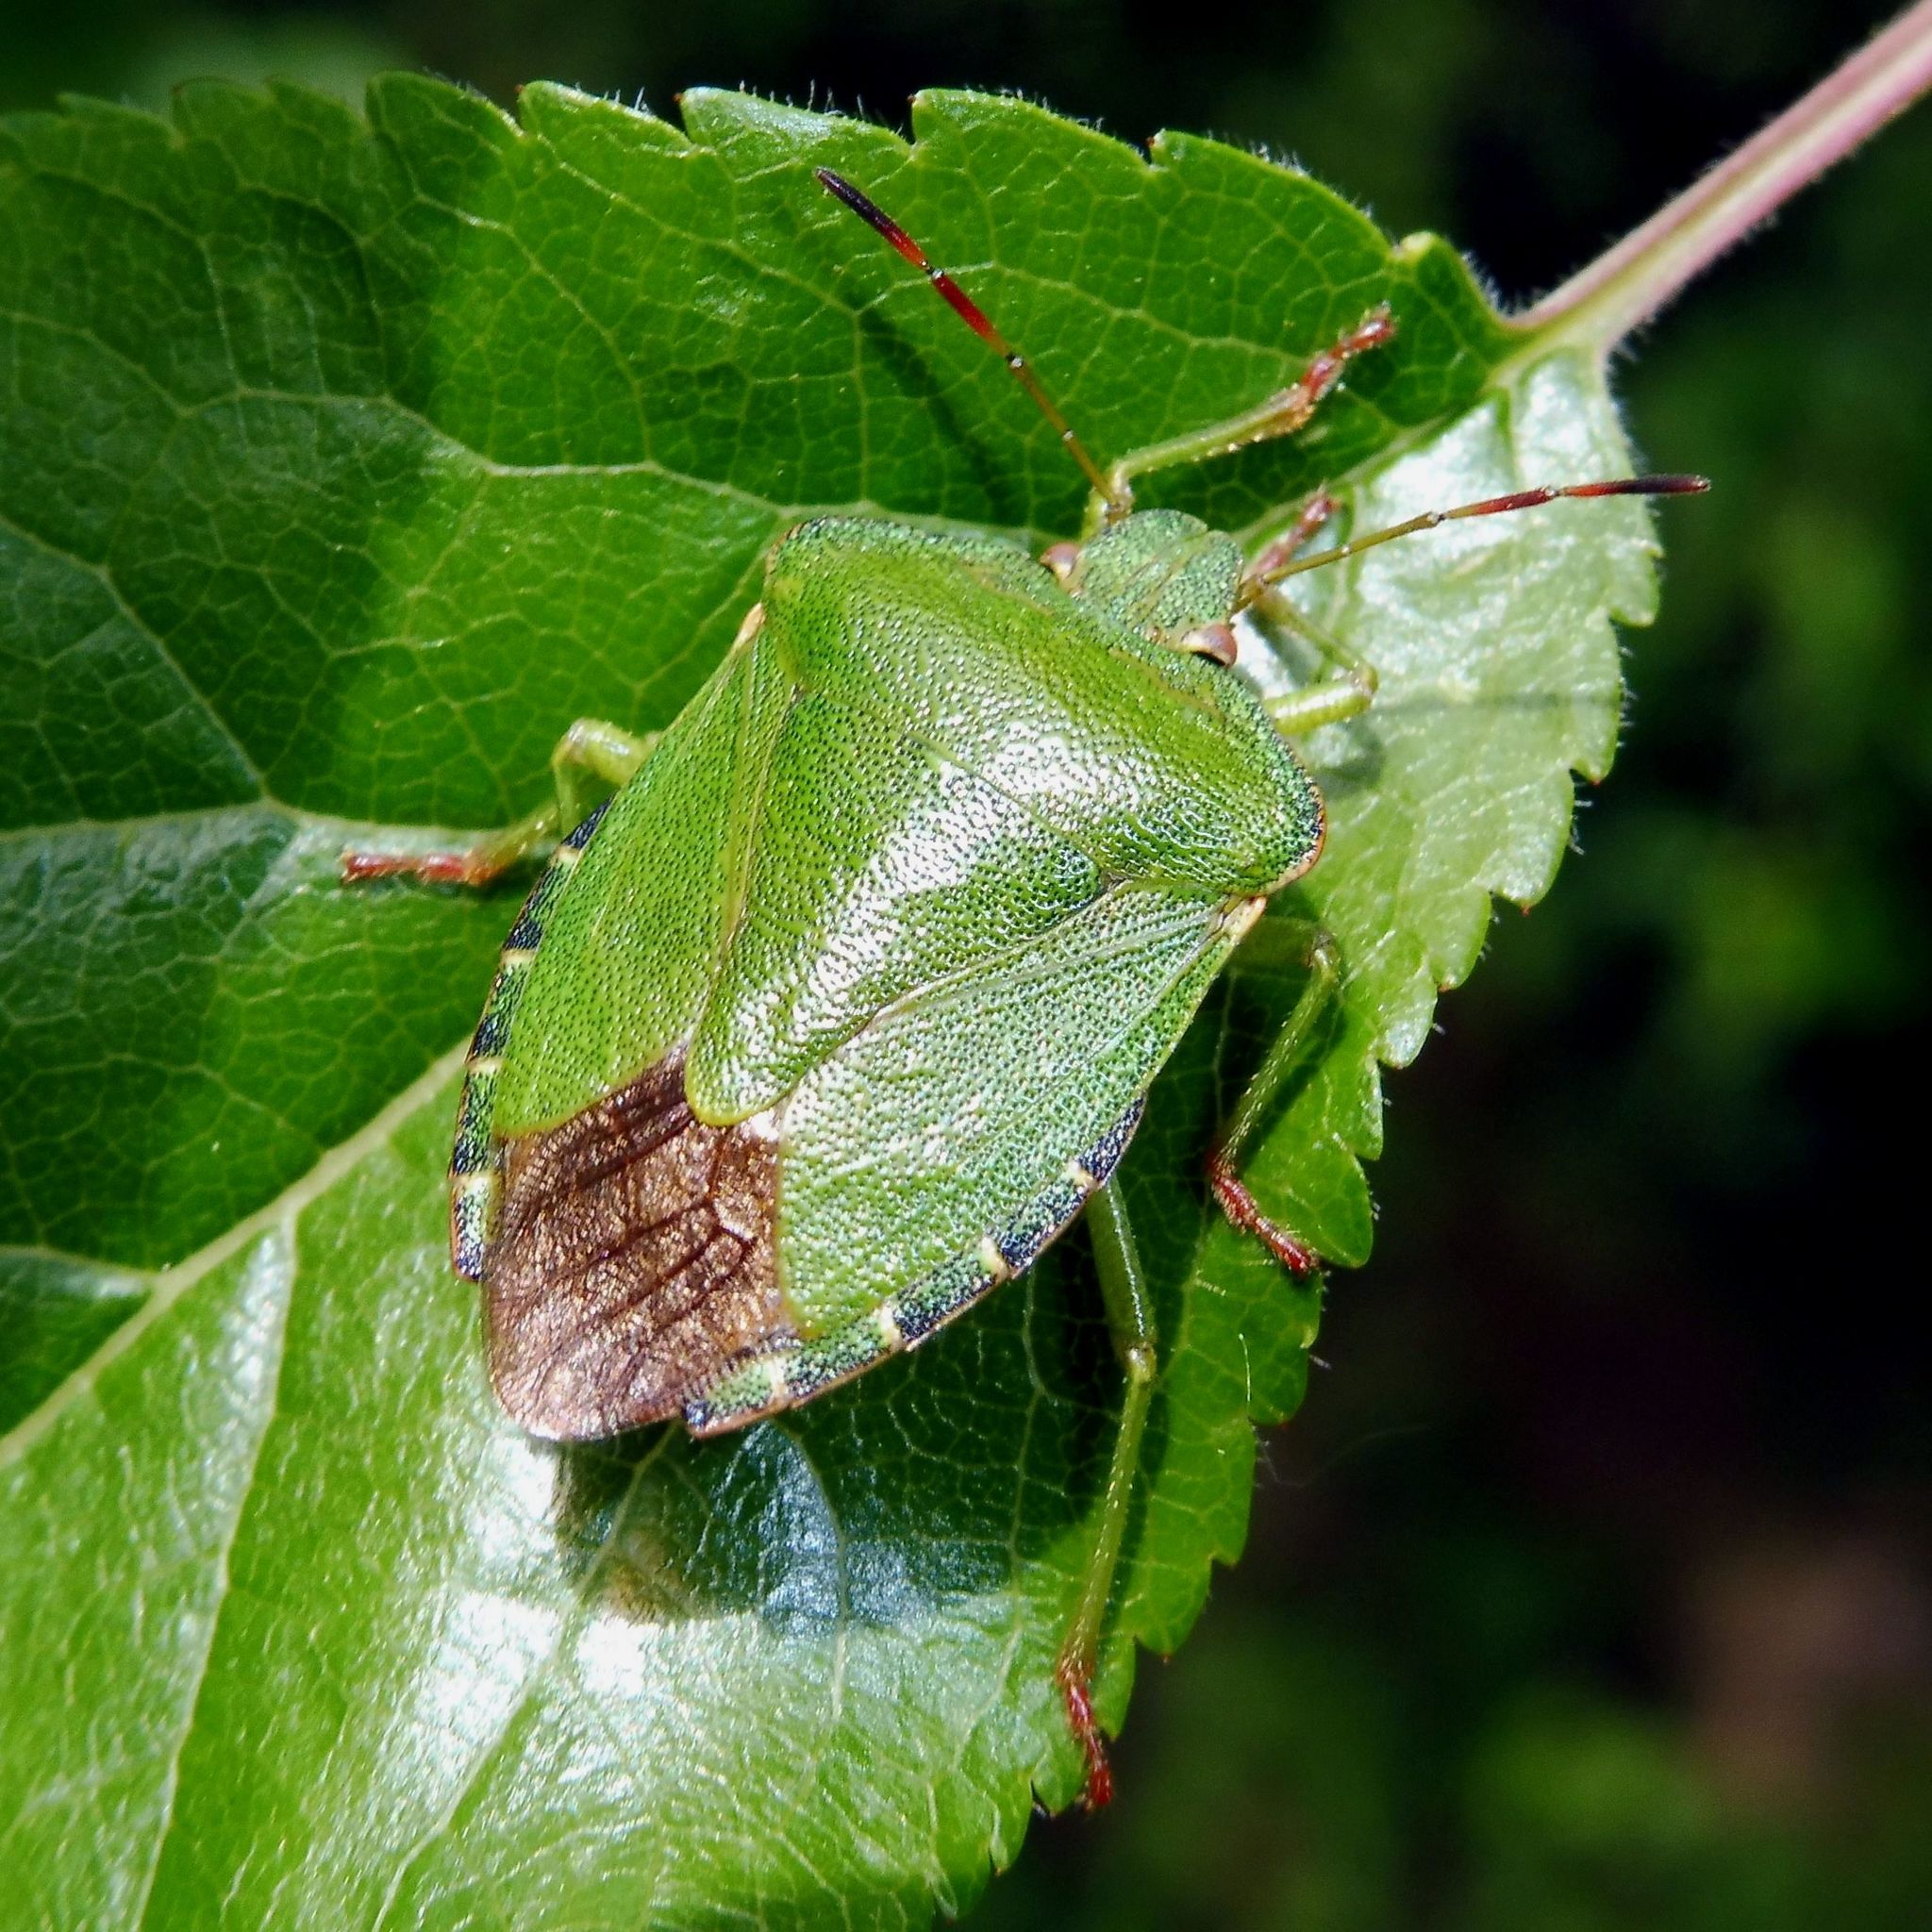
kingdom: Animalia
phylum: Arthropoda
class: Insecta
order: Hemiptera
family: Pentatomidae
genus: Palomena
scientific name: Palomena prasina
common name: Green shieldbug
